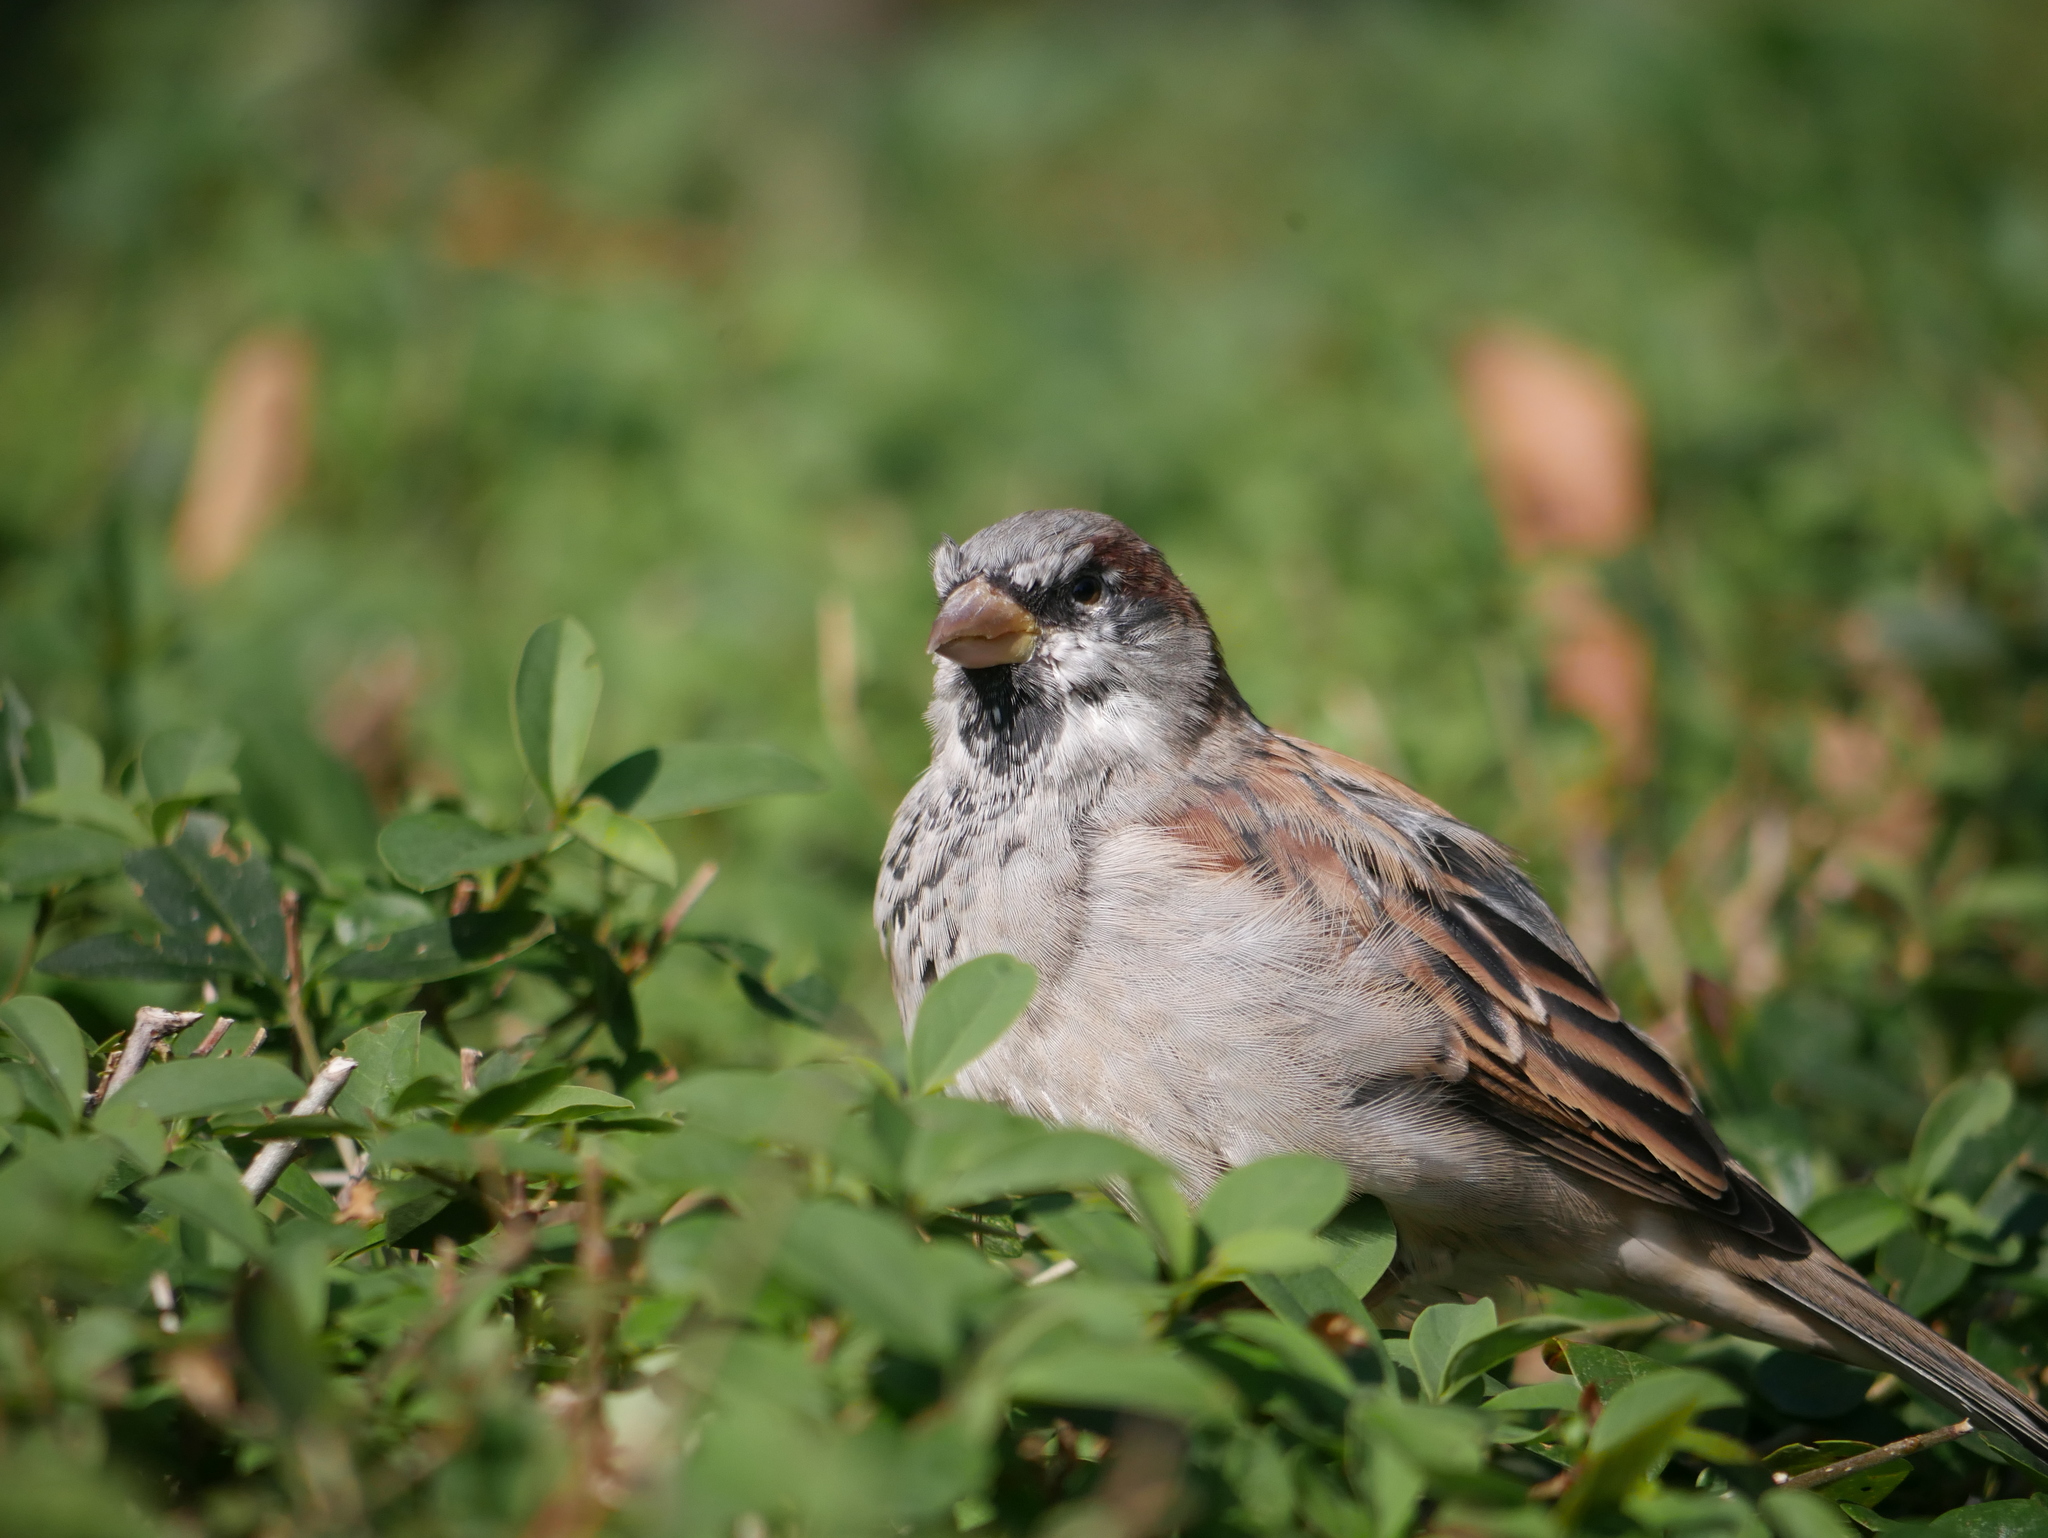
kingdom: Animalia
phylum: Chordata
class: Aves
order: Passeriformes
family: Passeridae
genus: Passer
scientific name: Passer domesticus
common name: House sparrow
